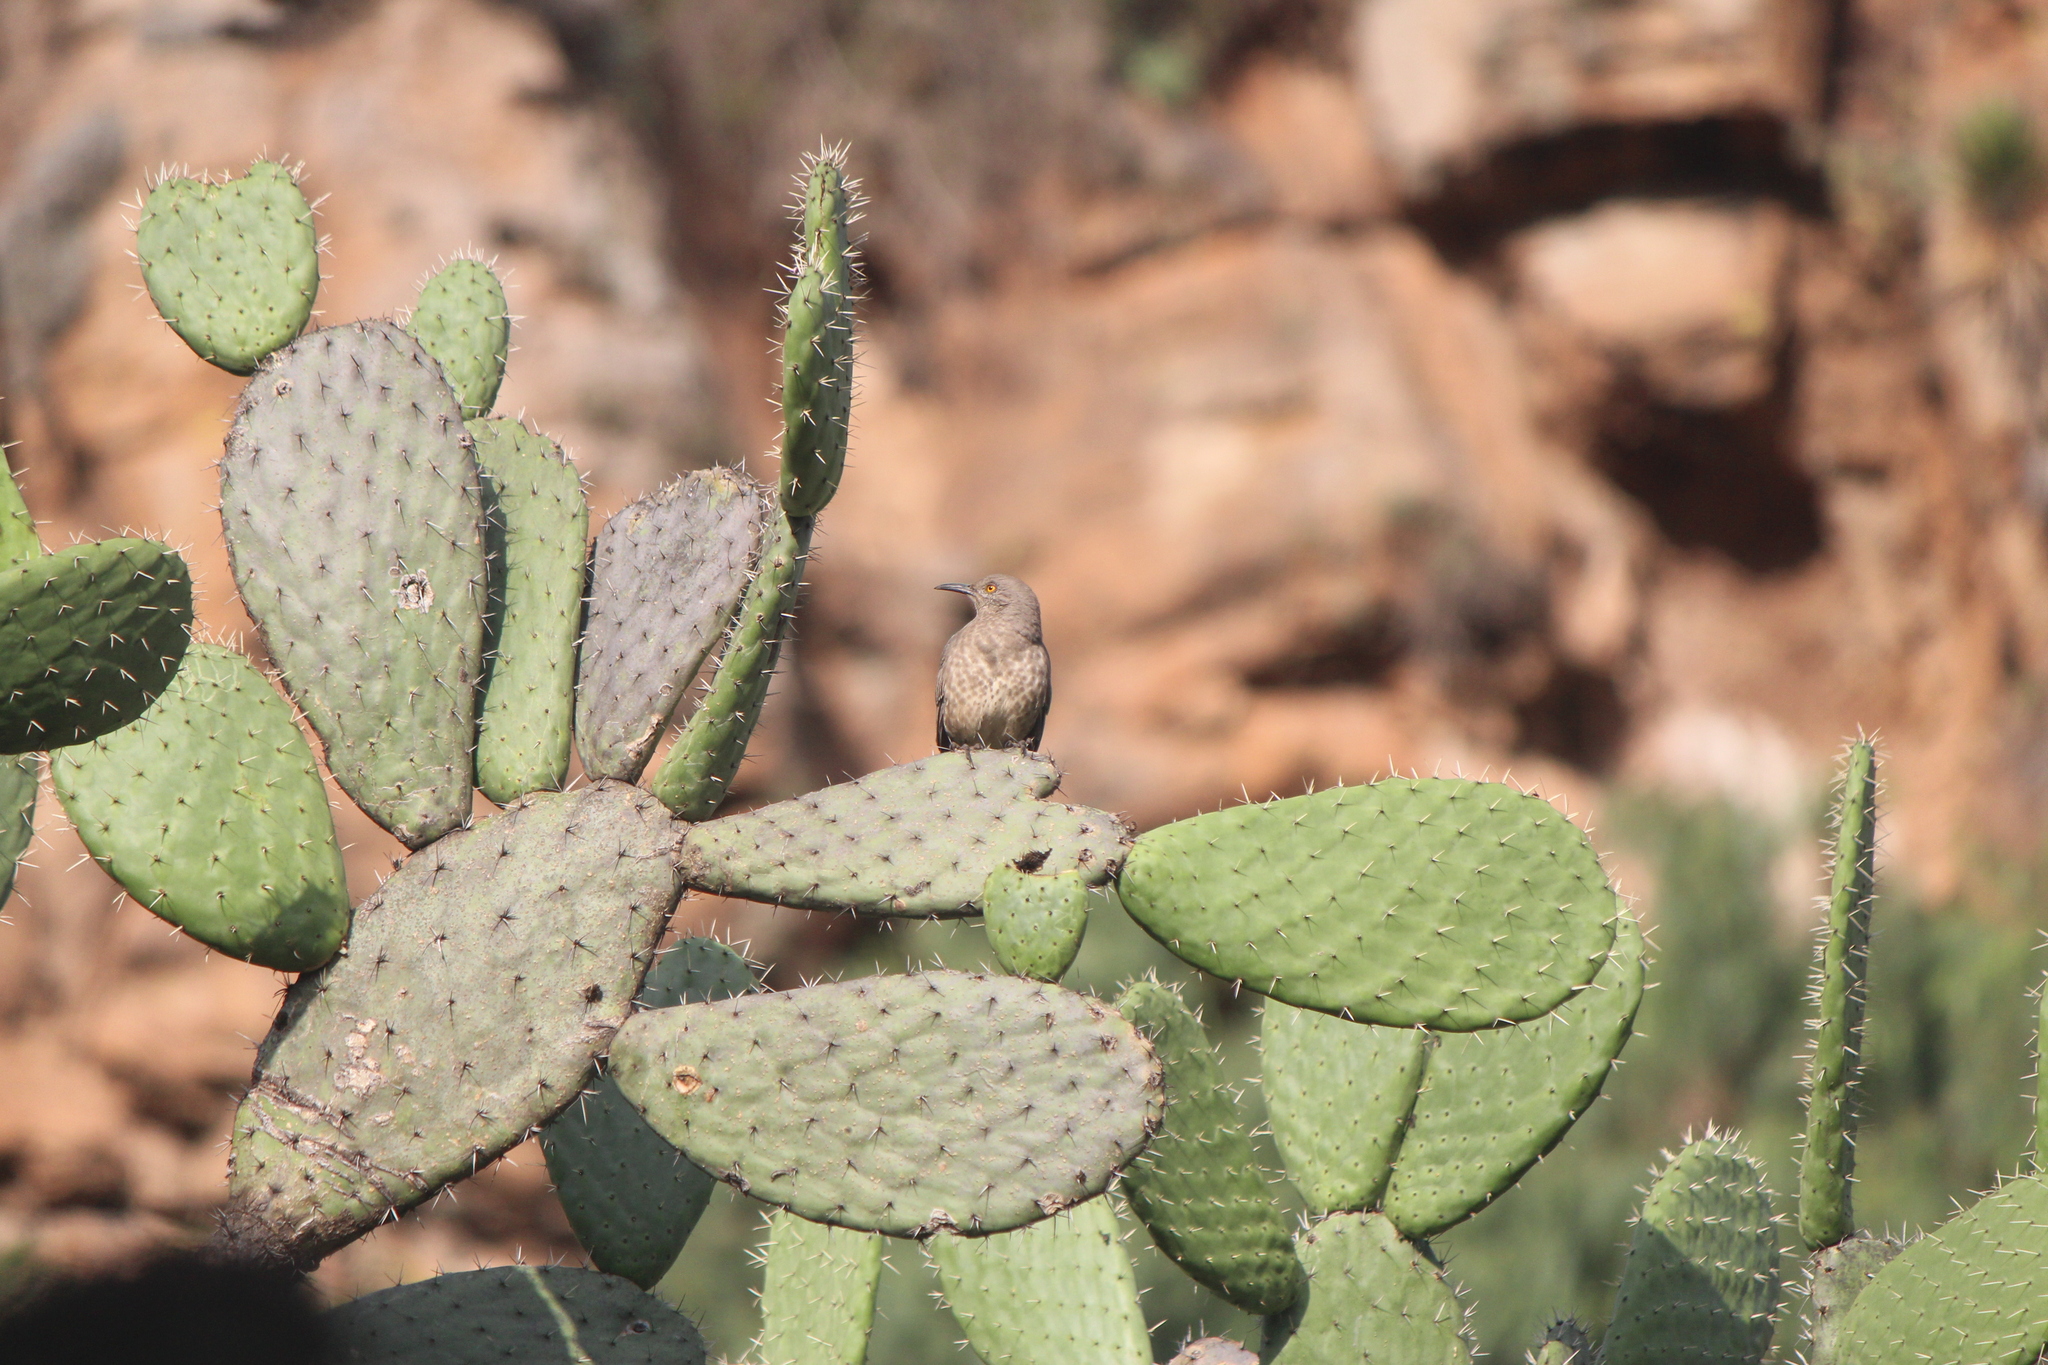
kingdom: Animalia
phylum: Chordata
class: Aves
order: Passeriformes
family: Mimidae
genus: Toxostoma
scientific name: Toxostoma curvirostre
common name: Curve-billed thrasher
